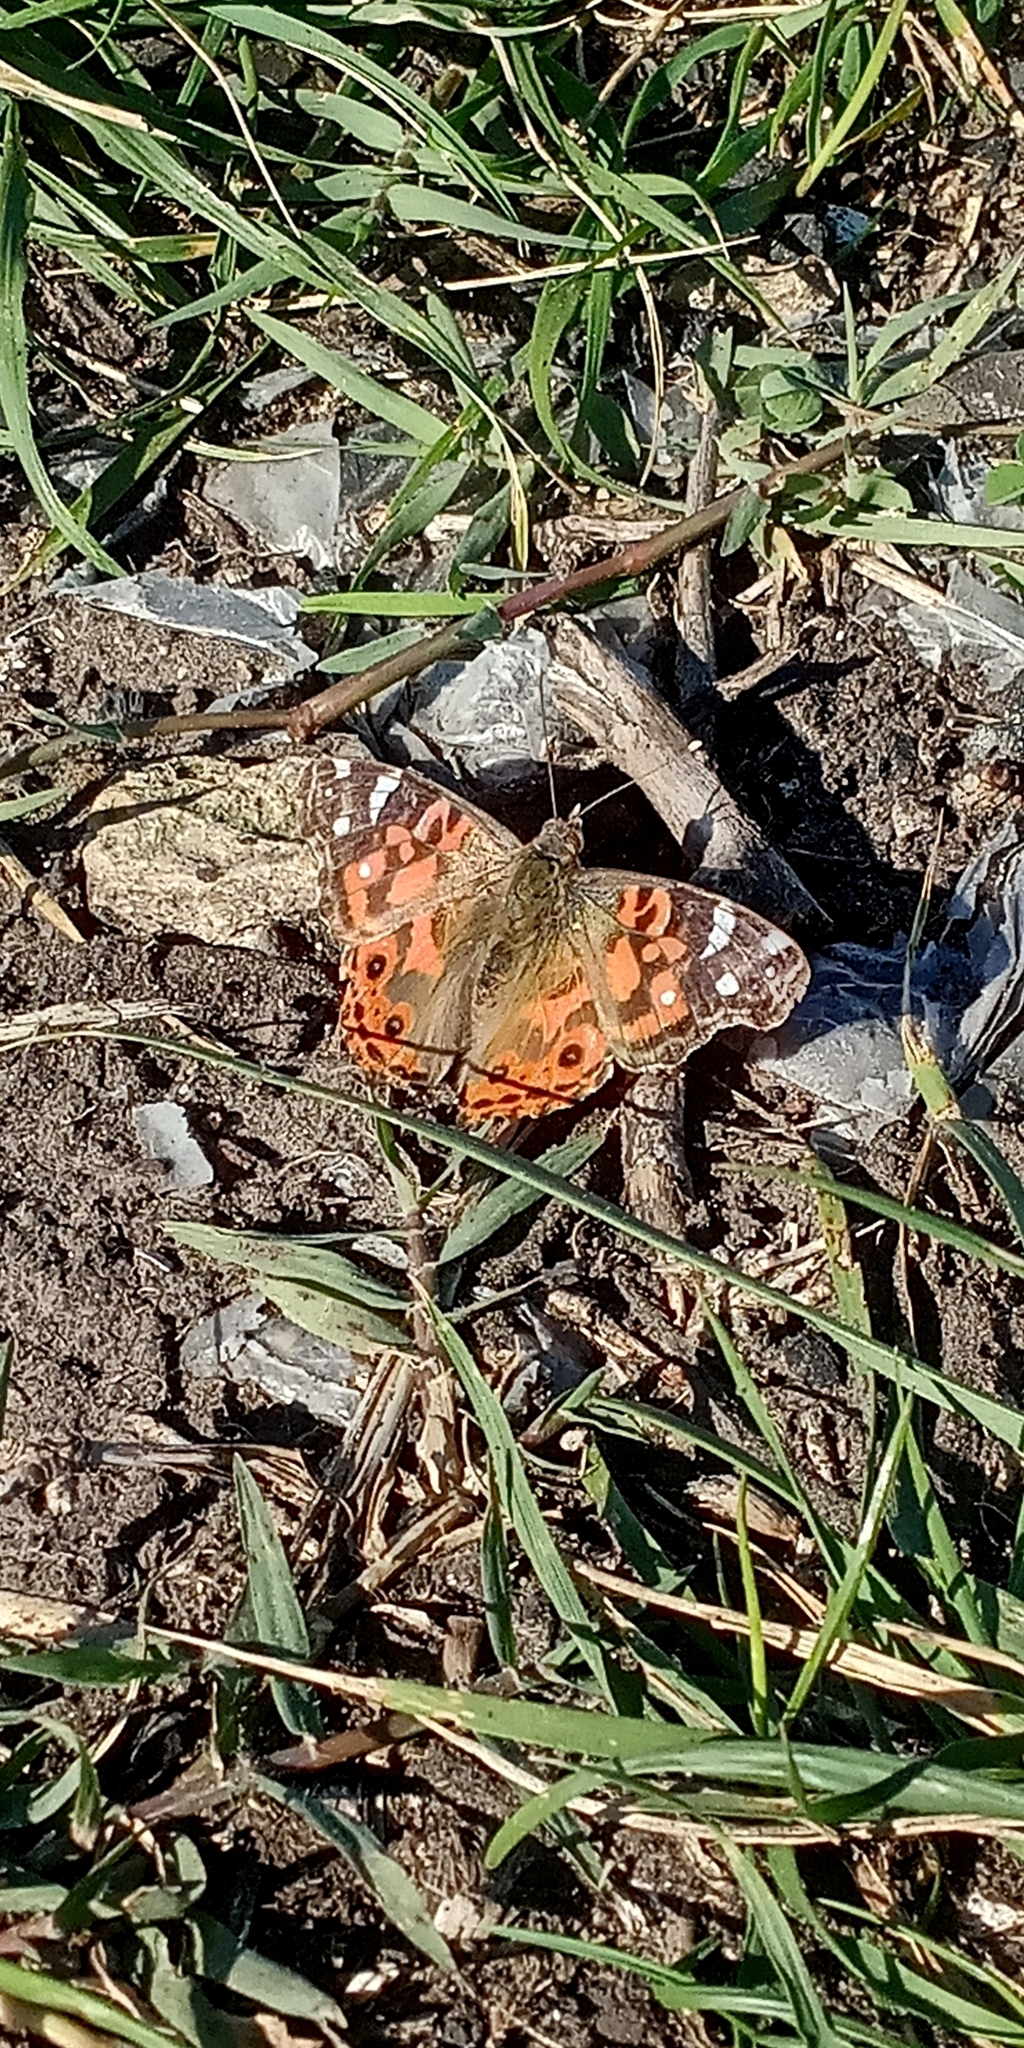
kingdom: Animalia
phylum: Arthropoda
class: Insecta
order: Lepidoptera
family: Nymphalidae
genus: Vanessa
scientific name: Vanessa braziliensis
